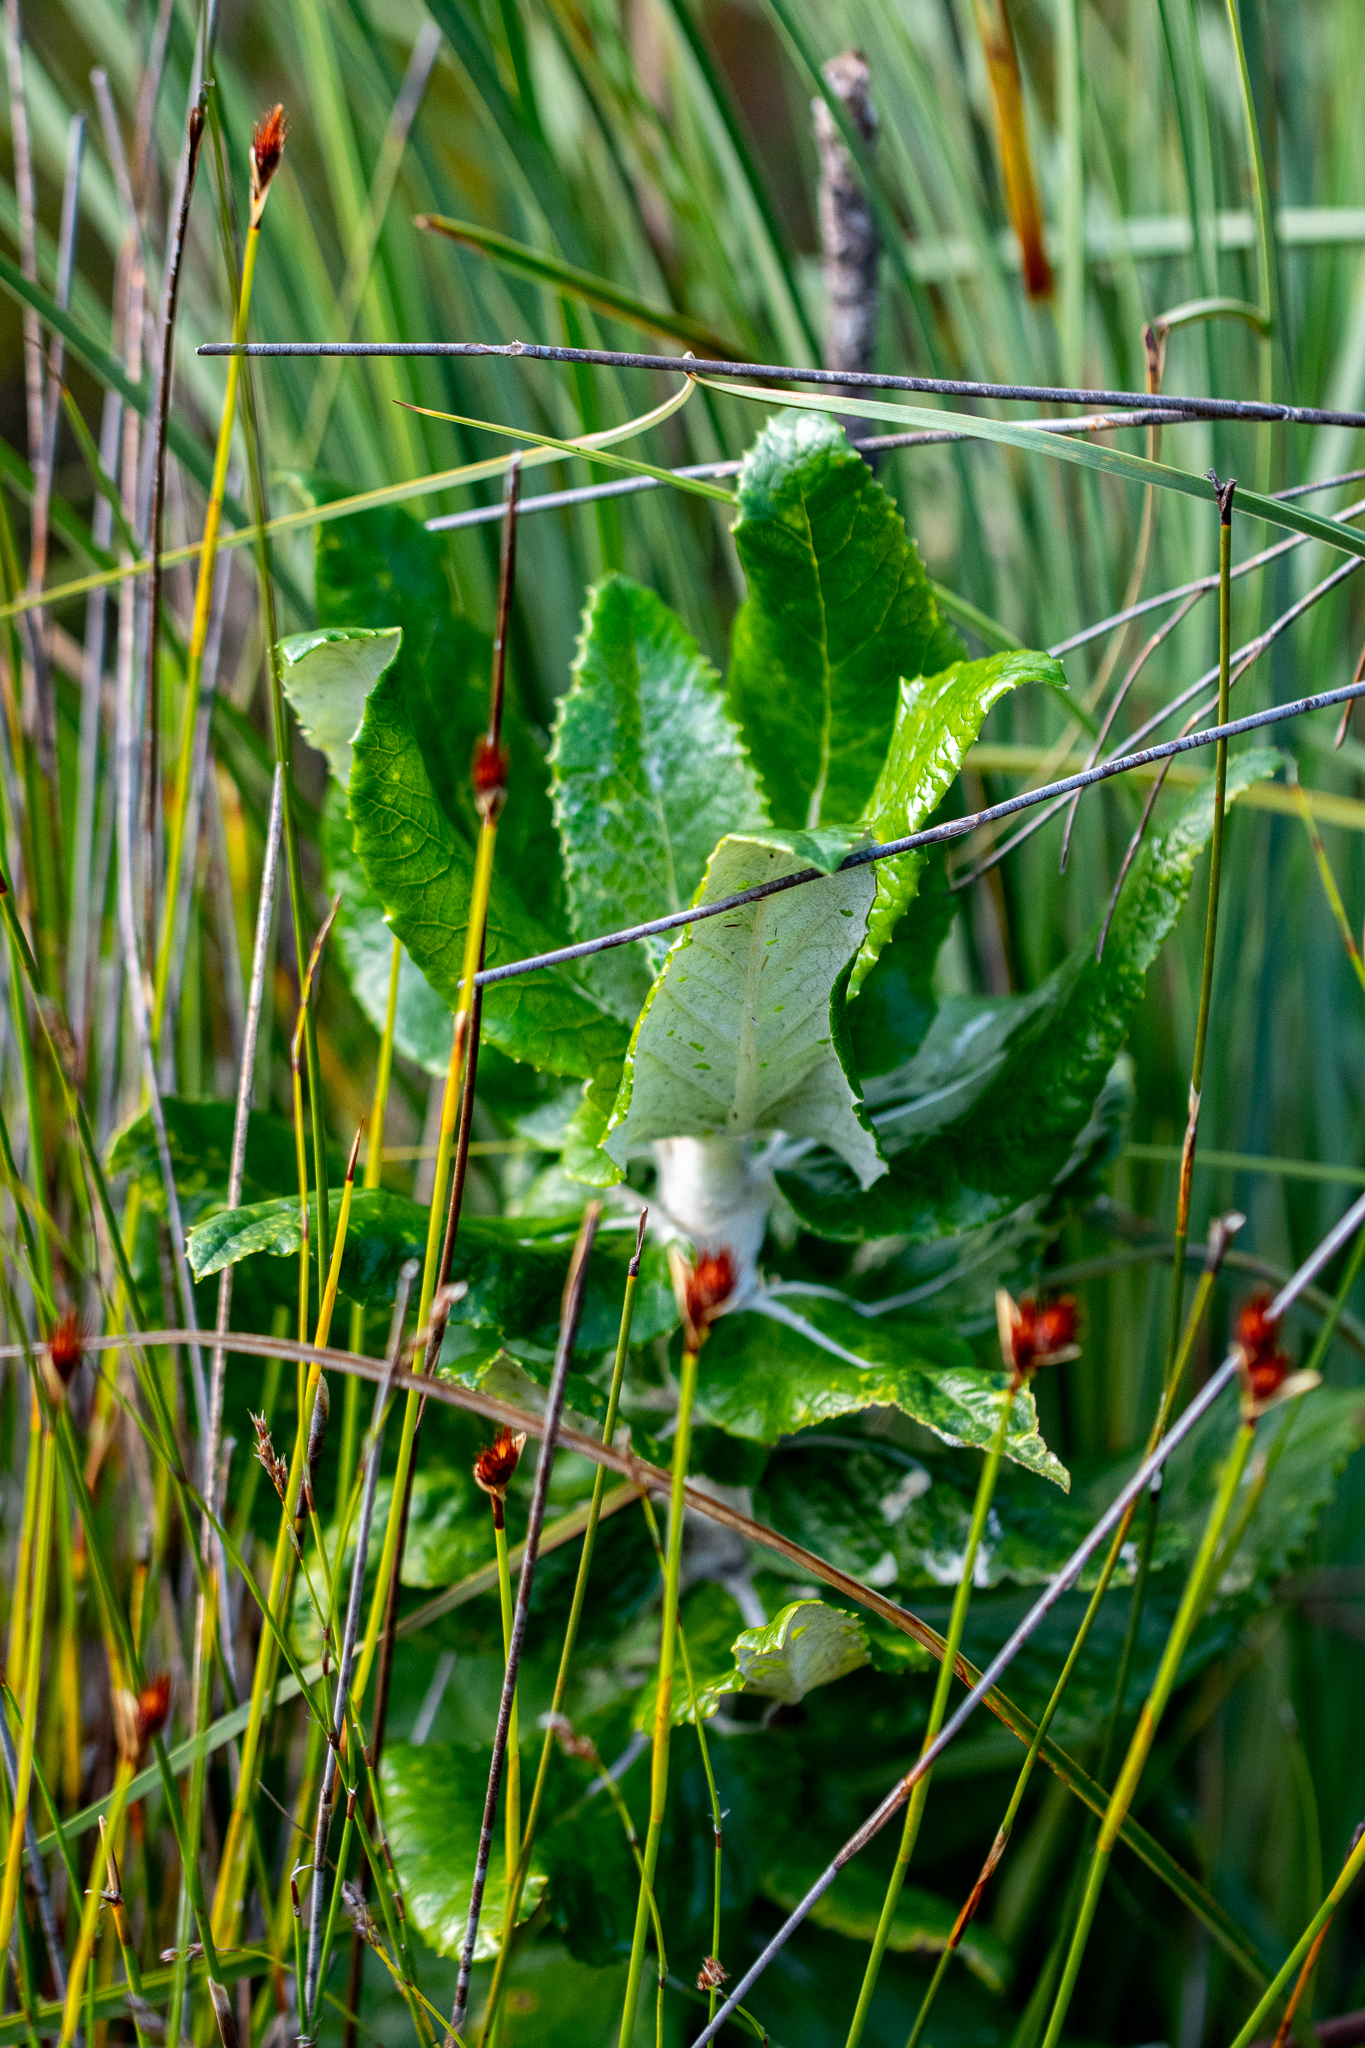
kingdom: Plantae
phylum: Tracheophyta
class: Magnoliopsida
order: Apiales
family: Apiaceae
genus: Hermas
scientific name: Hermas villosa
